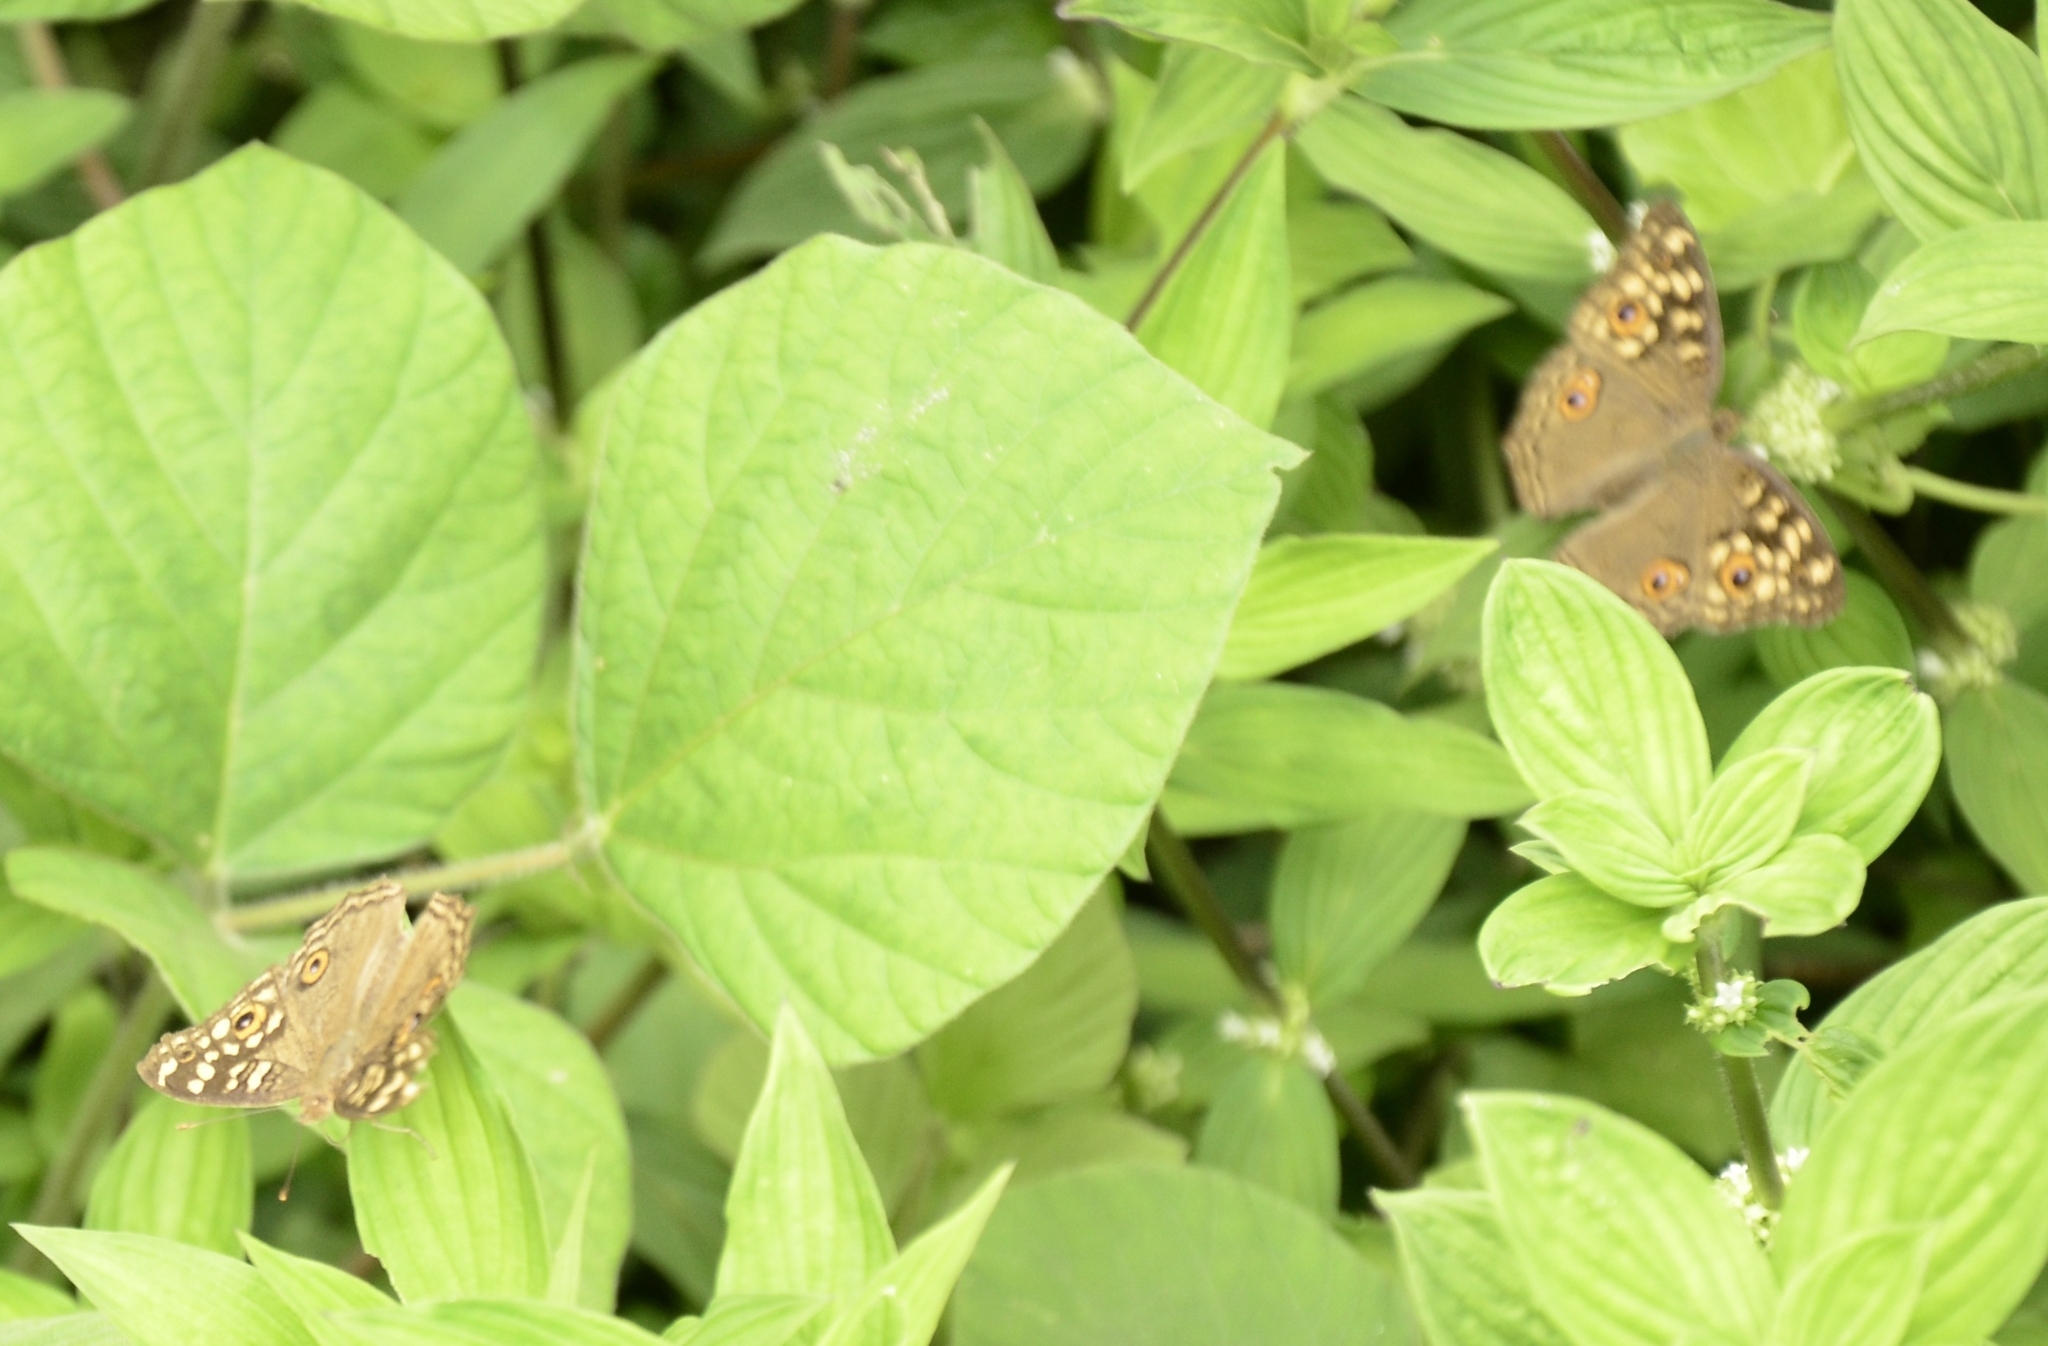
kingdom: Animalia
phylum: Arthropoda
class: Insecta
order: Lepidoptera
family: Nymphalidae
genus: Junonia
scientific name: Junonia lemonias
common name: Lemon pansy
